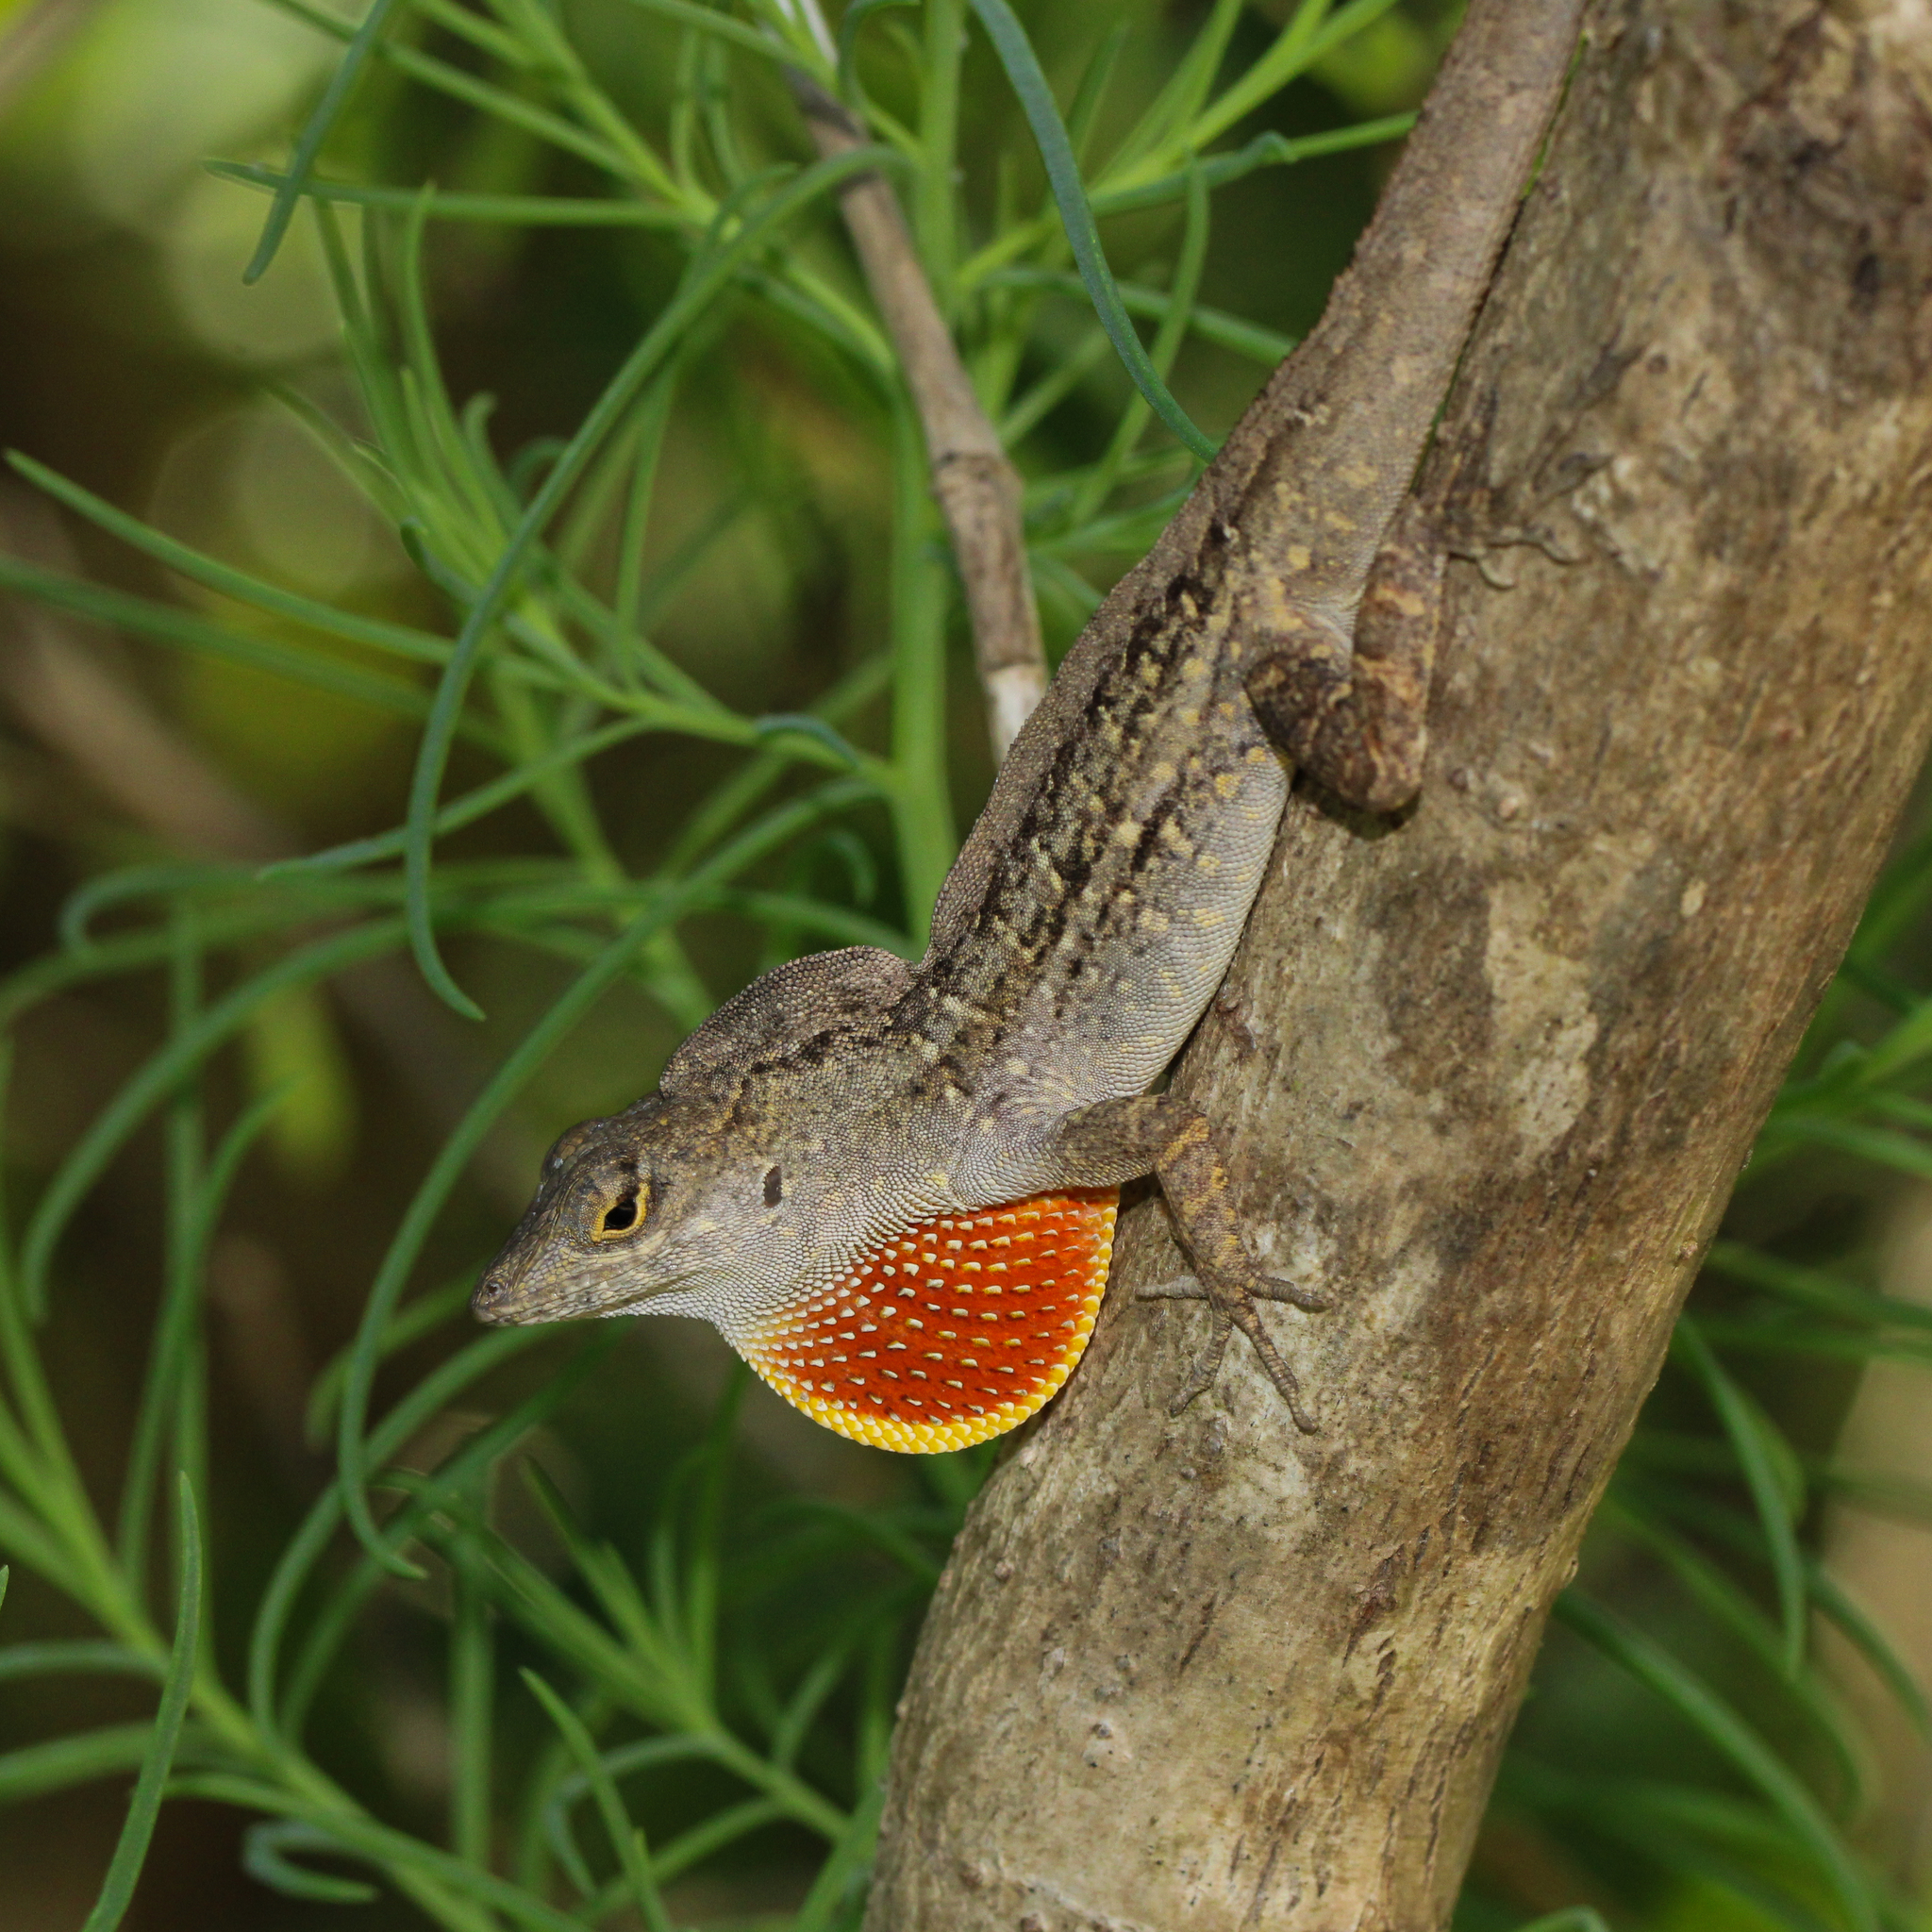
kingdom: Animalia
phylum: Chordata
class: Squamata
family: Dactyloidae
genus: Anolis
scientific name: Anolis sagrei
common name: Brown anole
